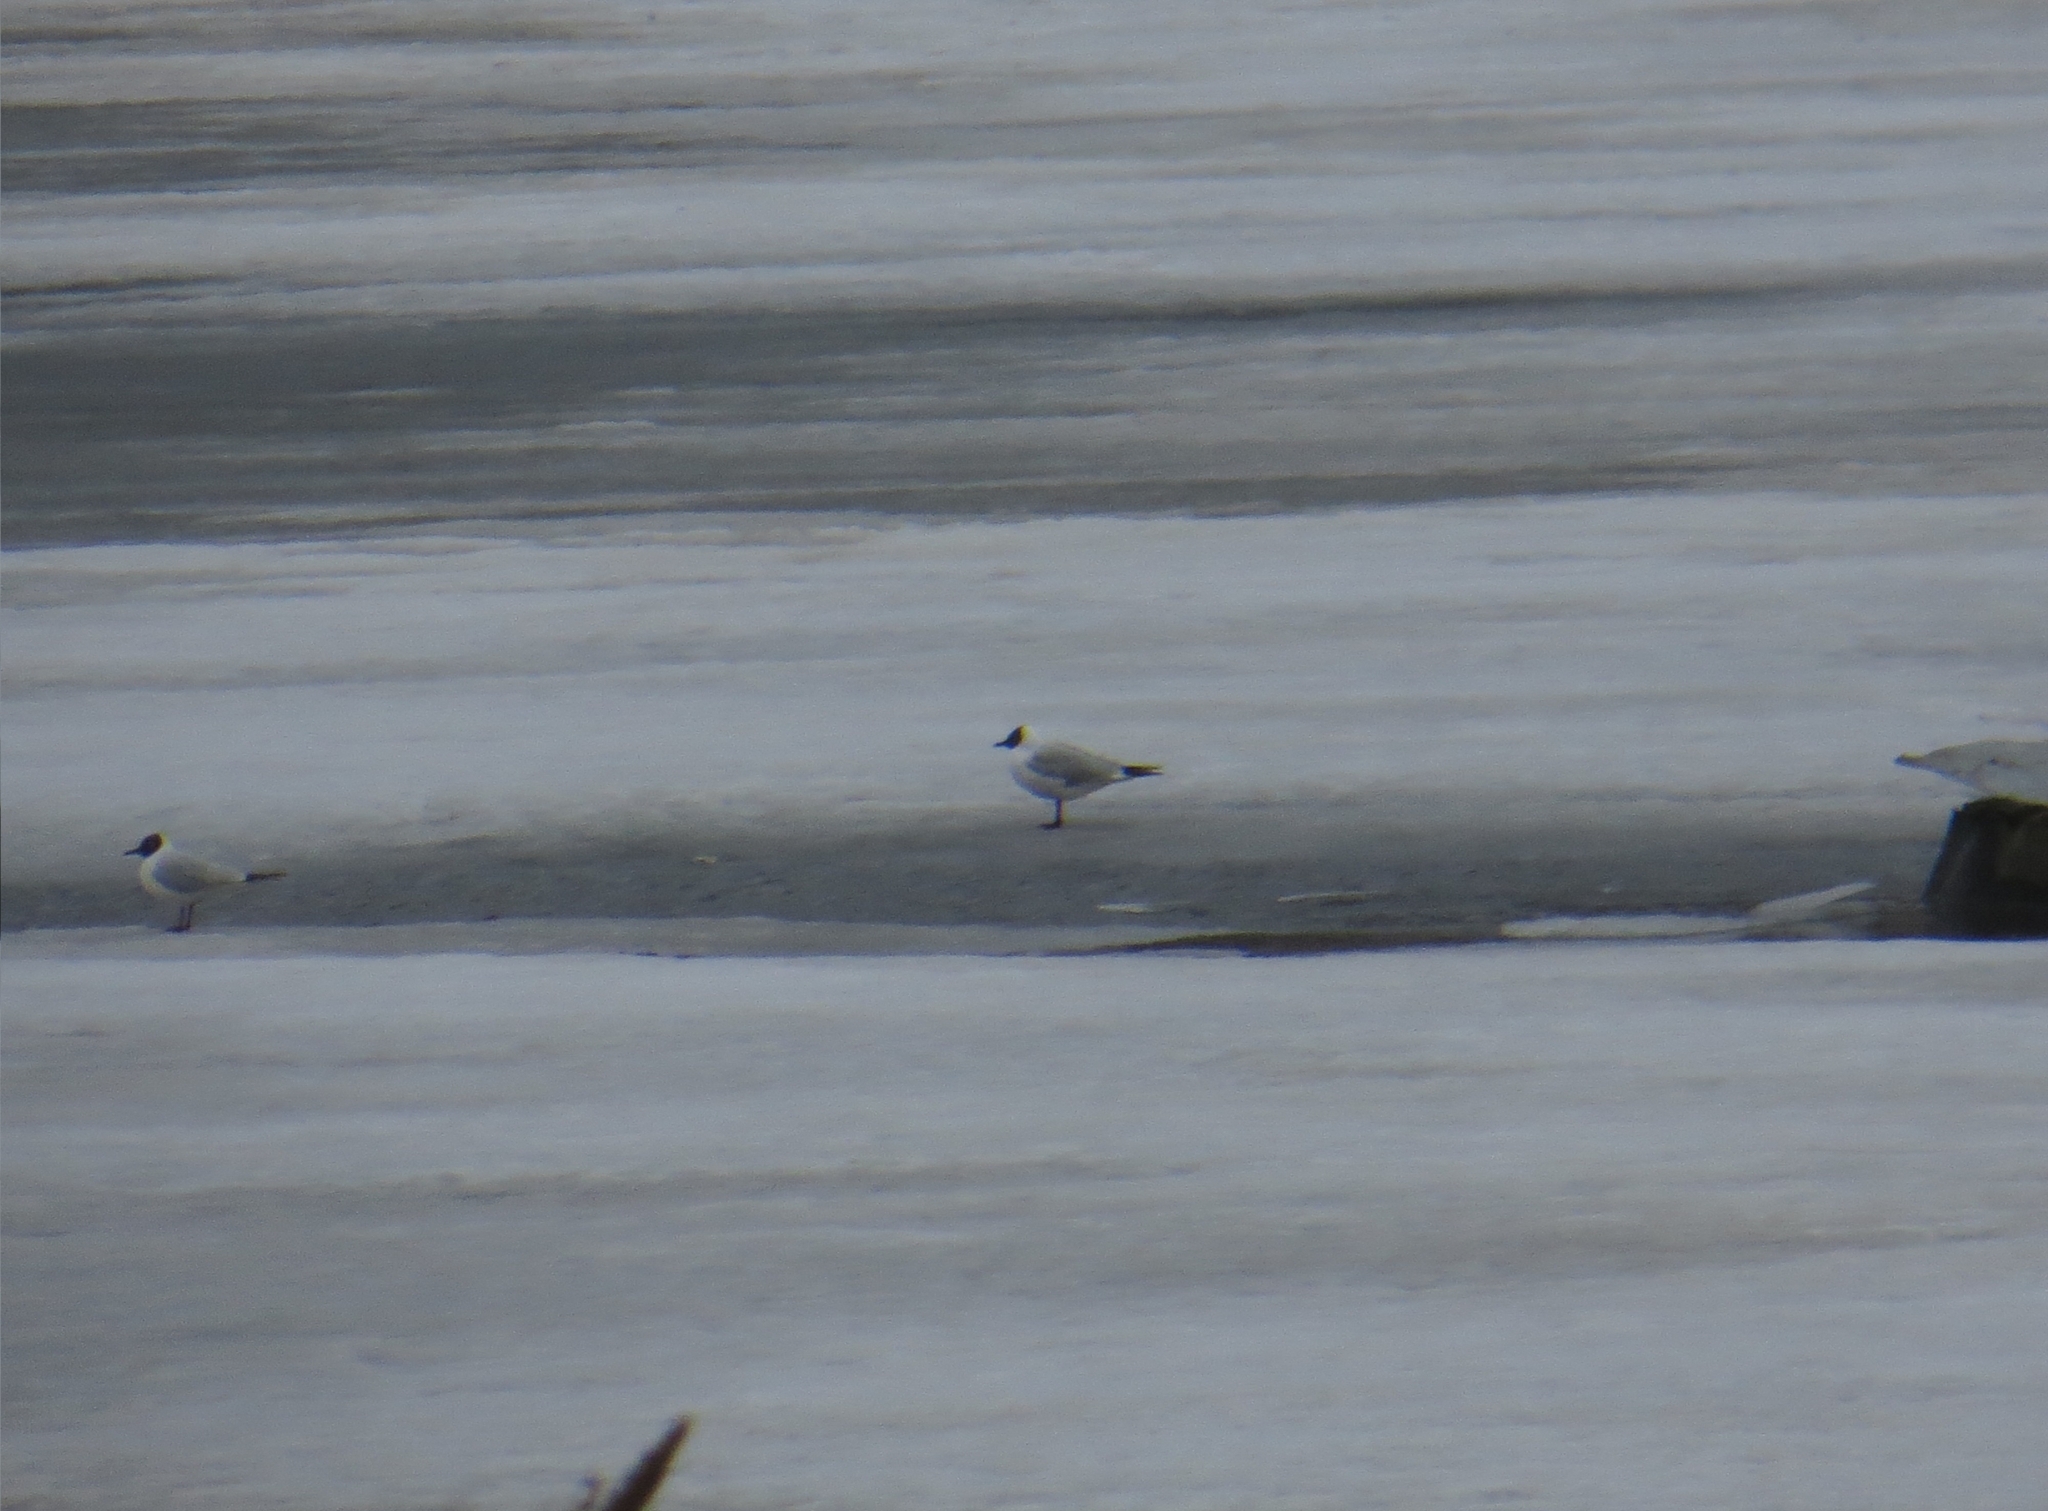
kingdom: Animalia
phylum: Chordata
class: Aves
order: Charadriiformes
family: Laridae
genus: Chroicocephalus
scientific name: Chroicocephalus ridibundus
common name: Black-headed gull
